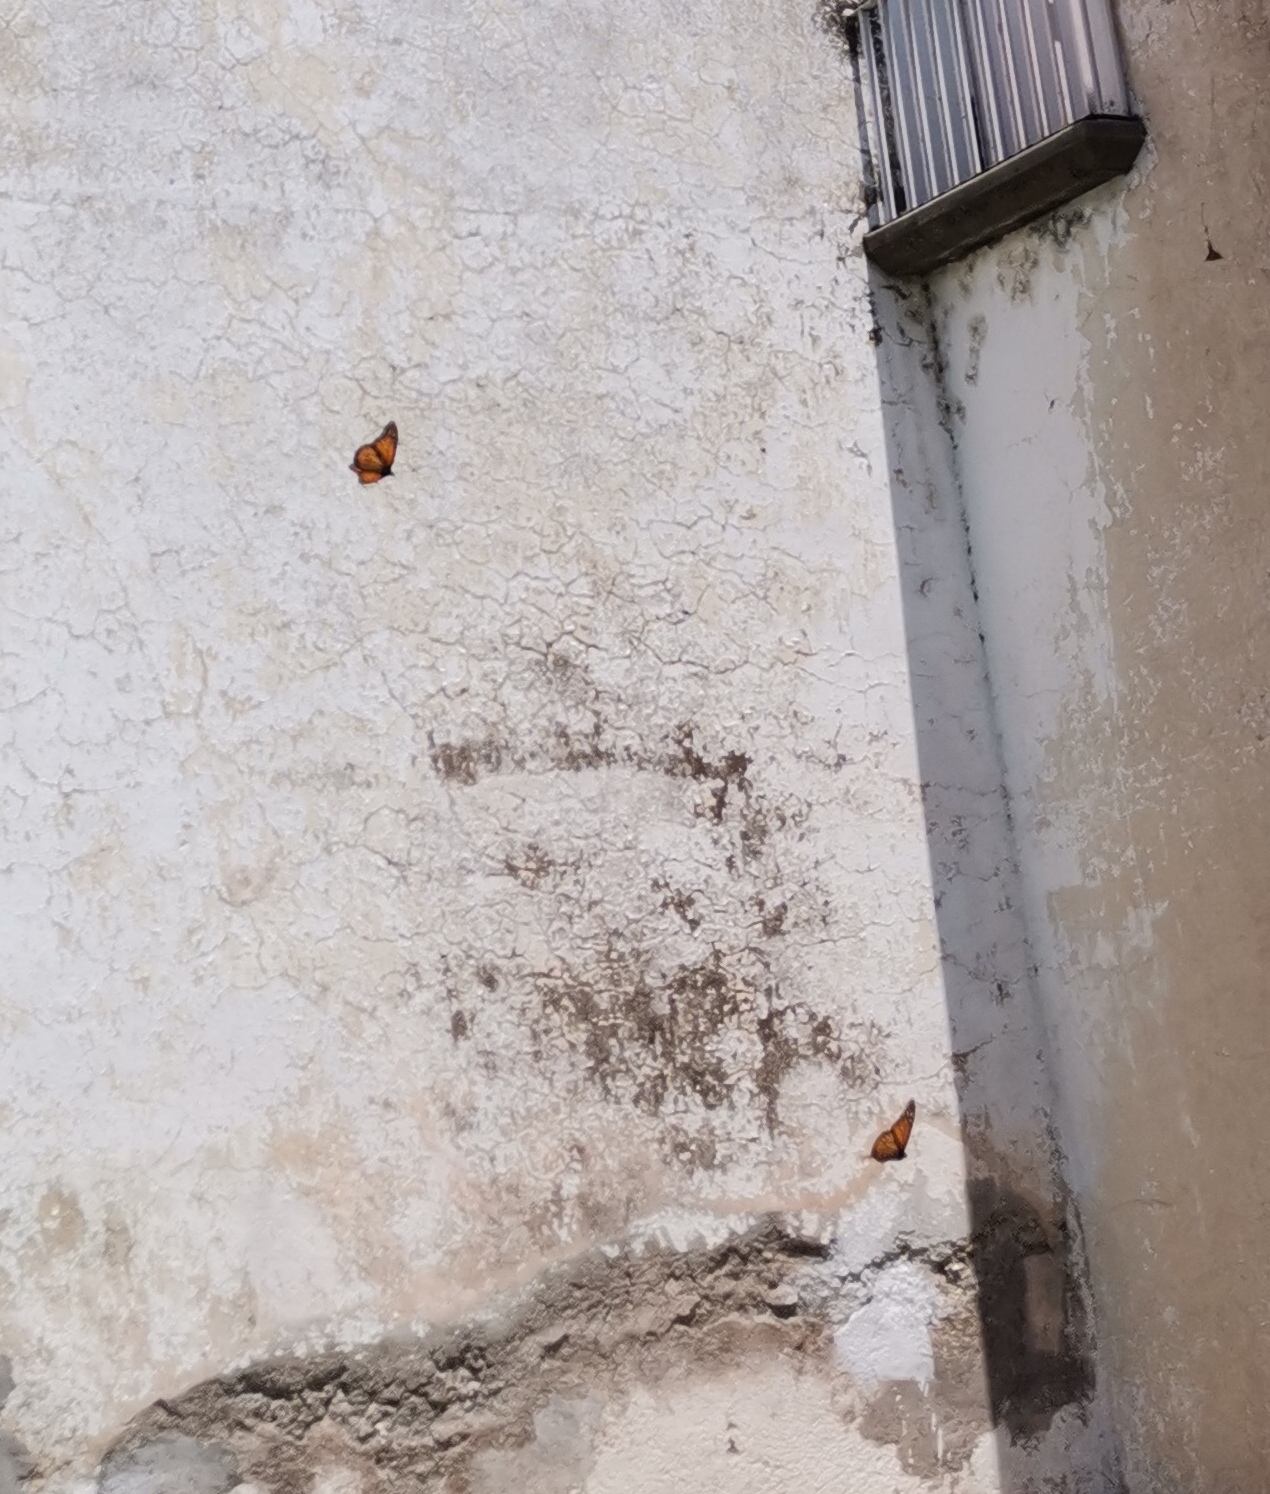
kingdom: Animalia
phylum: Arthropoda
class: Insecta
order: Lepidoptera
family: Nymphalidae
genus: Danaus
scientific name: Danaus plexippus
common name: Monarch
